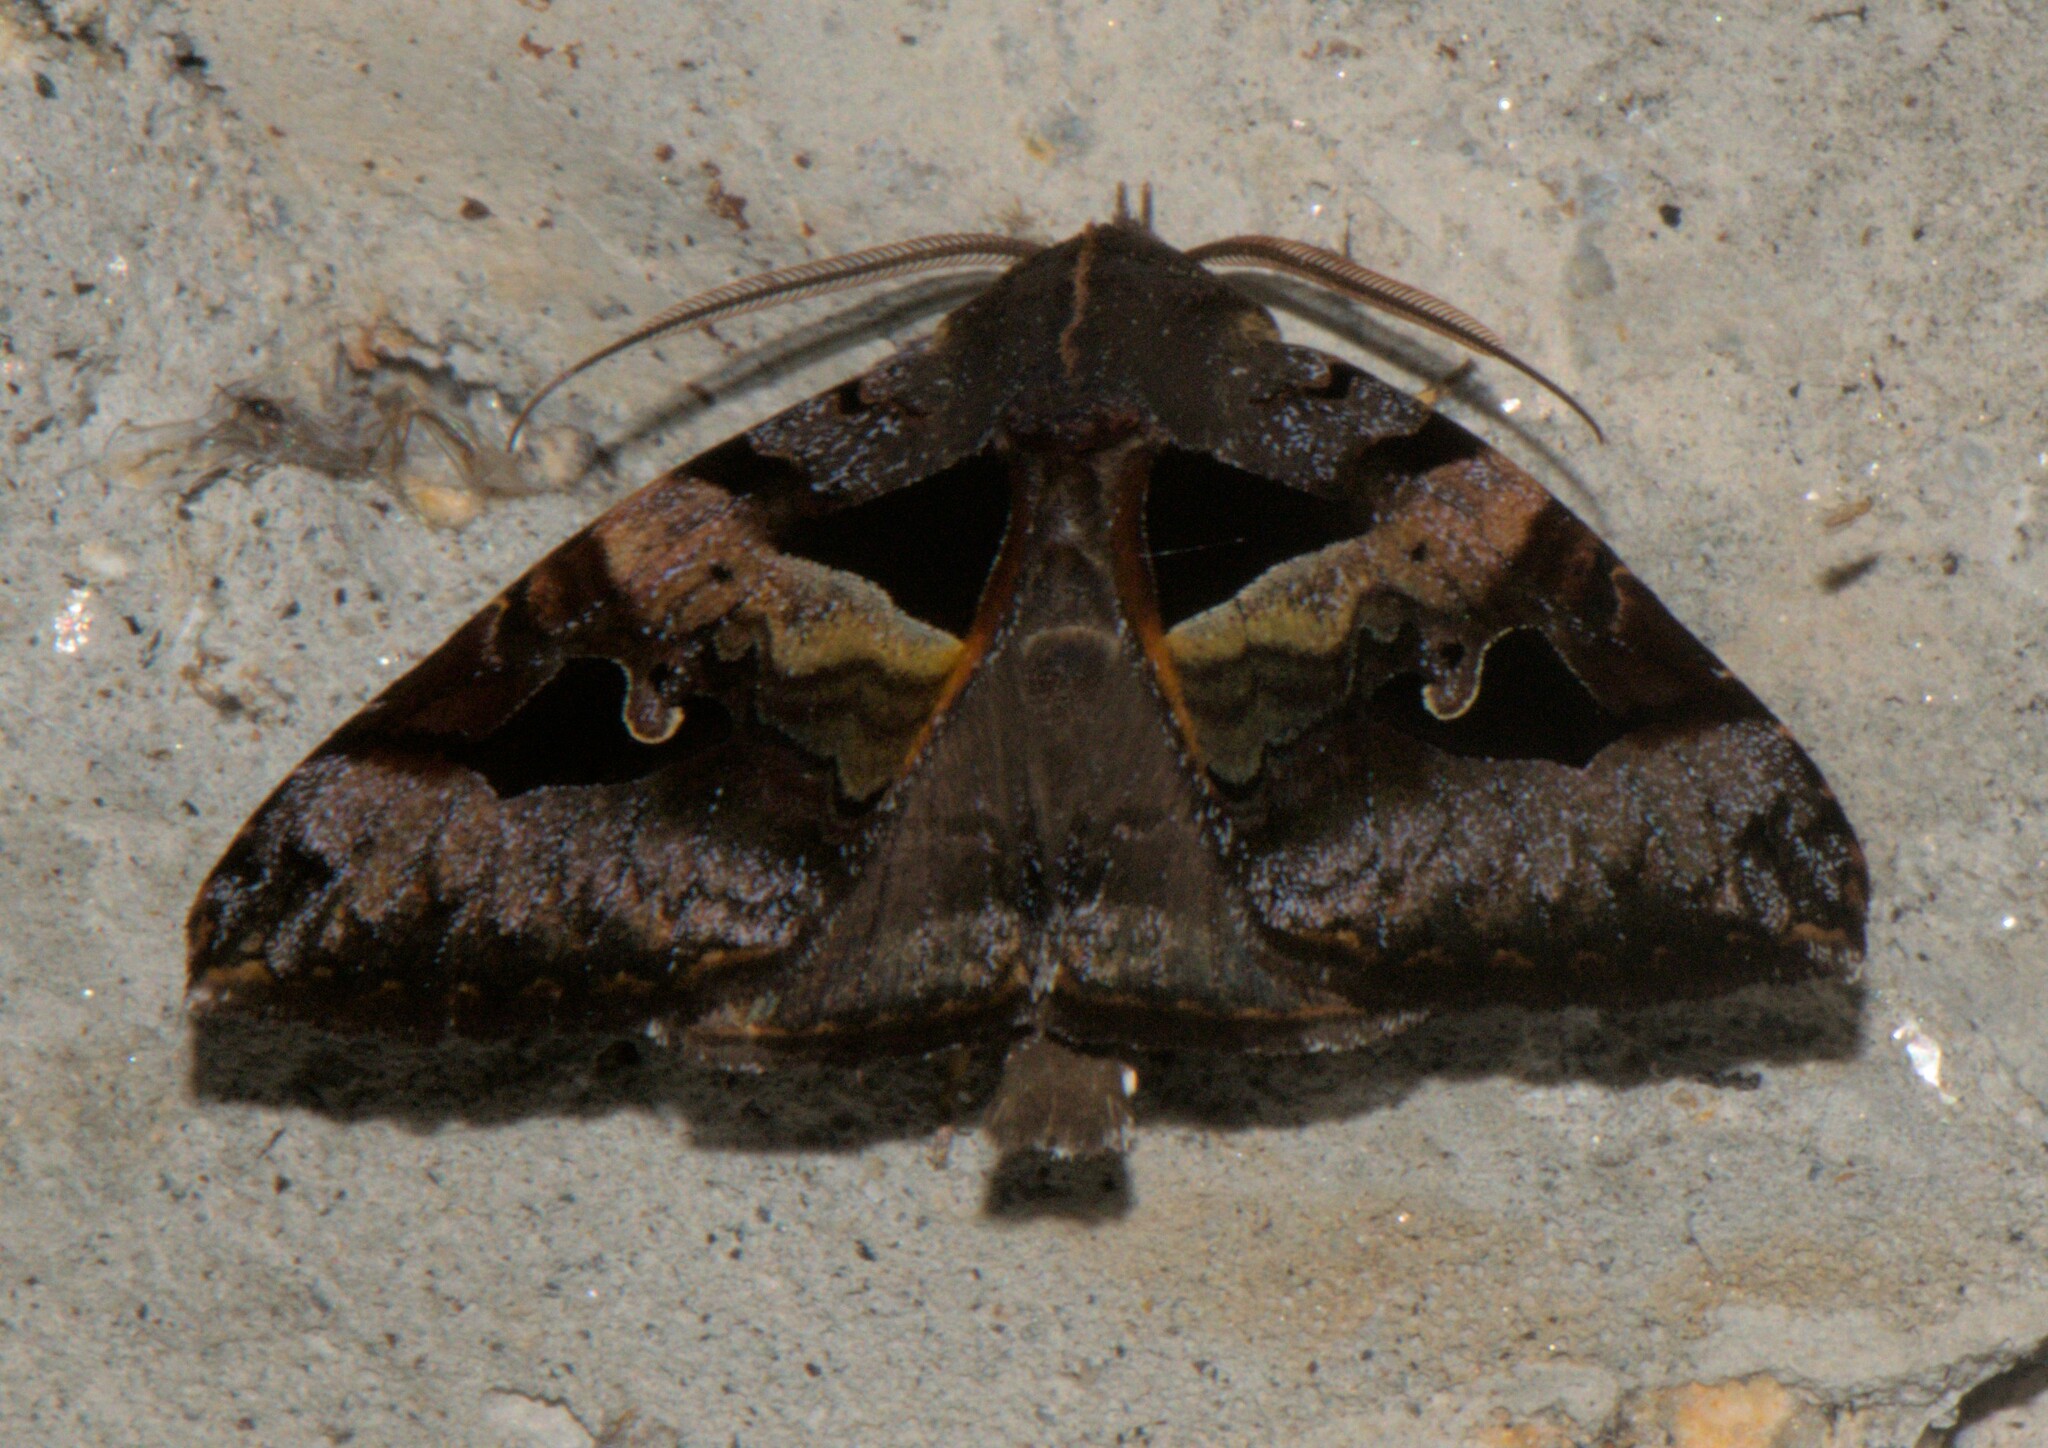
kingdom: Animalia
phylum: Arthropoda
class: Insecta
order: Lepidoptera
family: Erebidae
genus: Avatha
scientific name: Avatha chinensis
